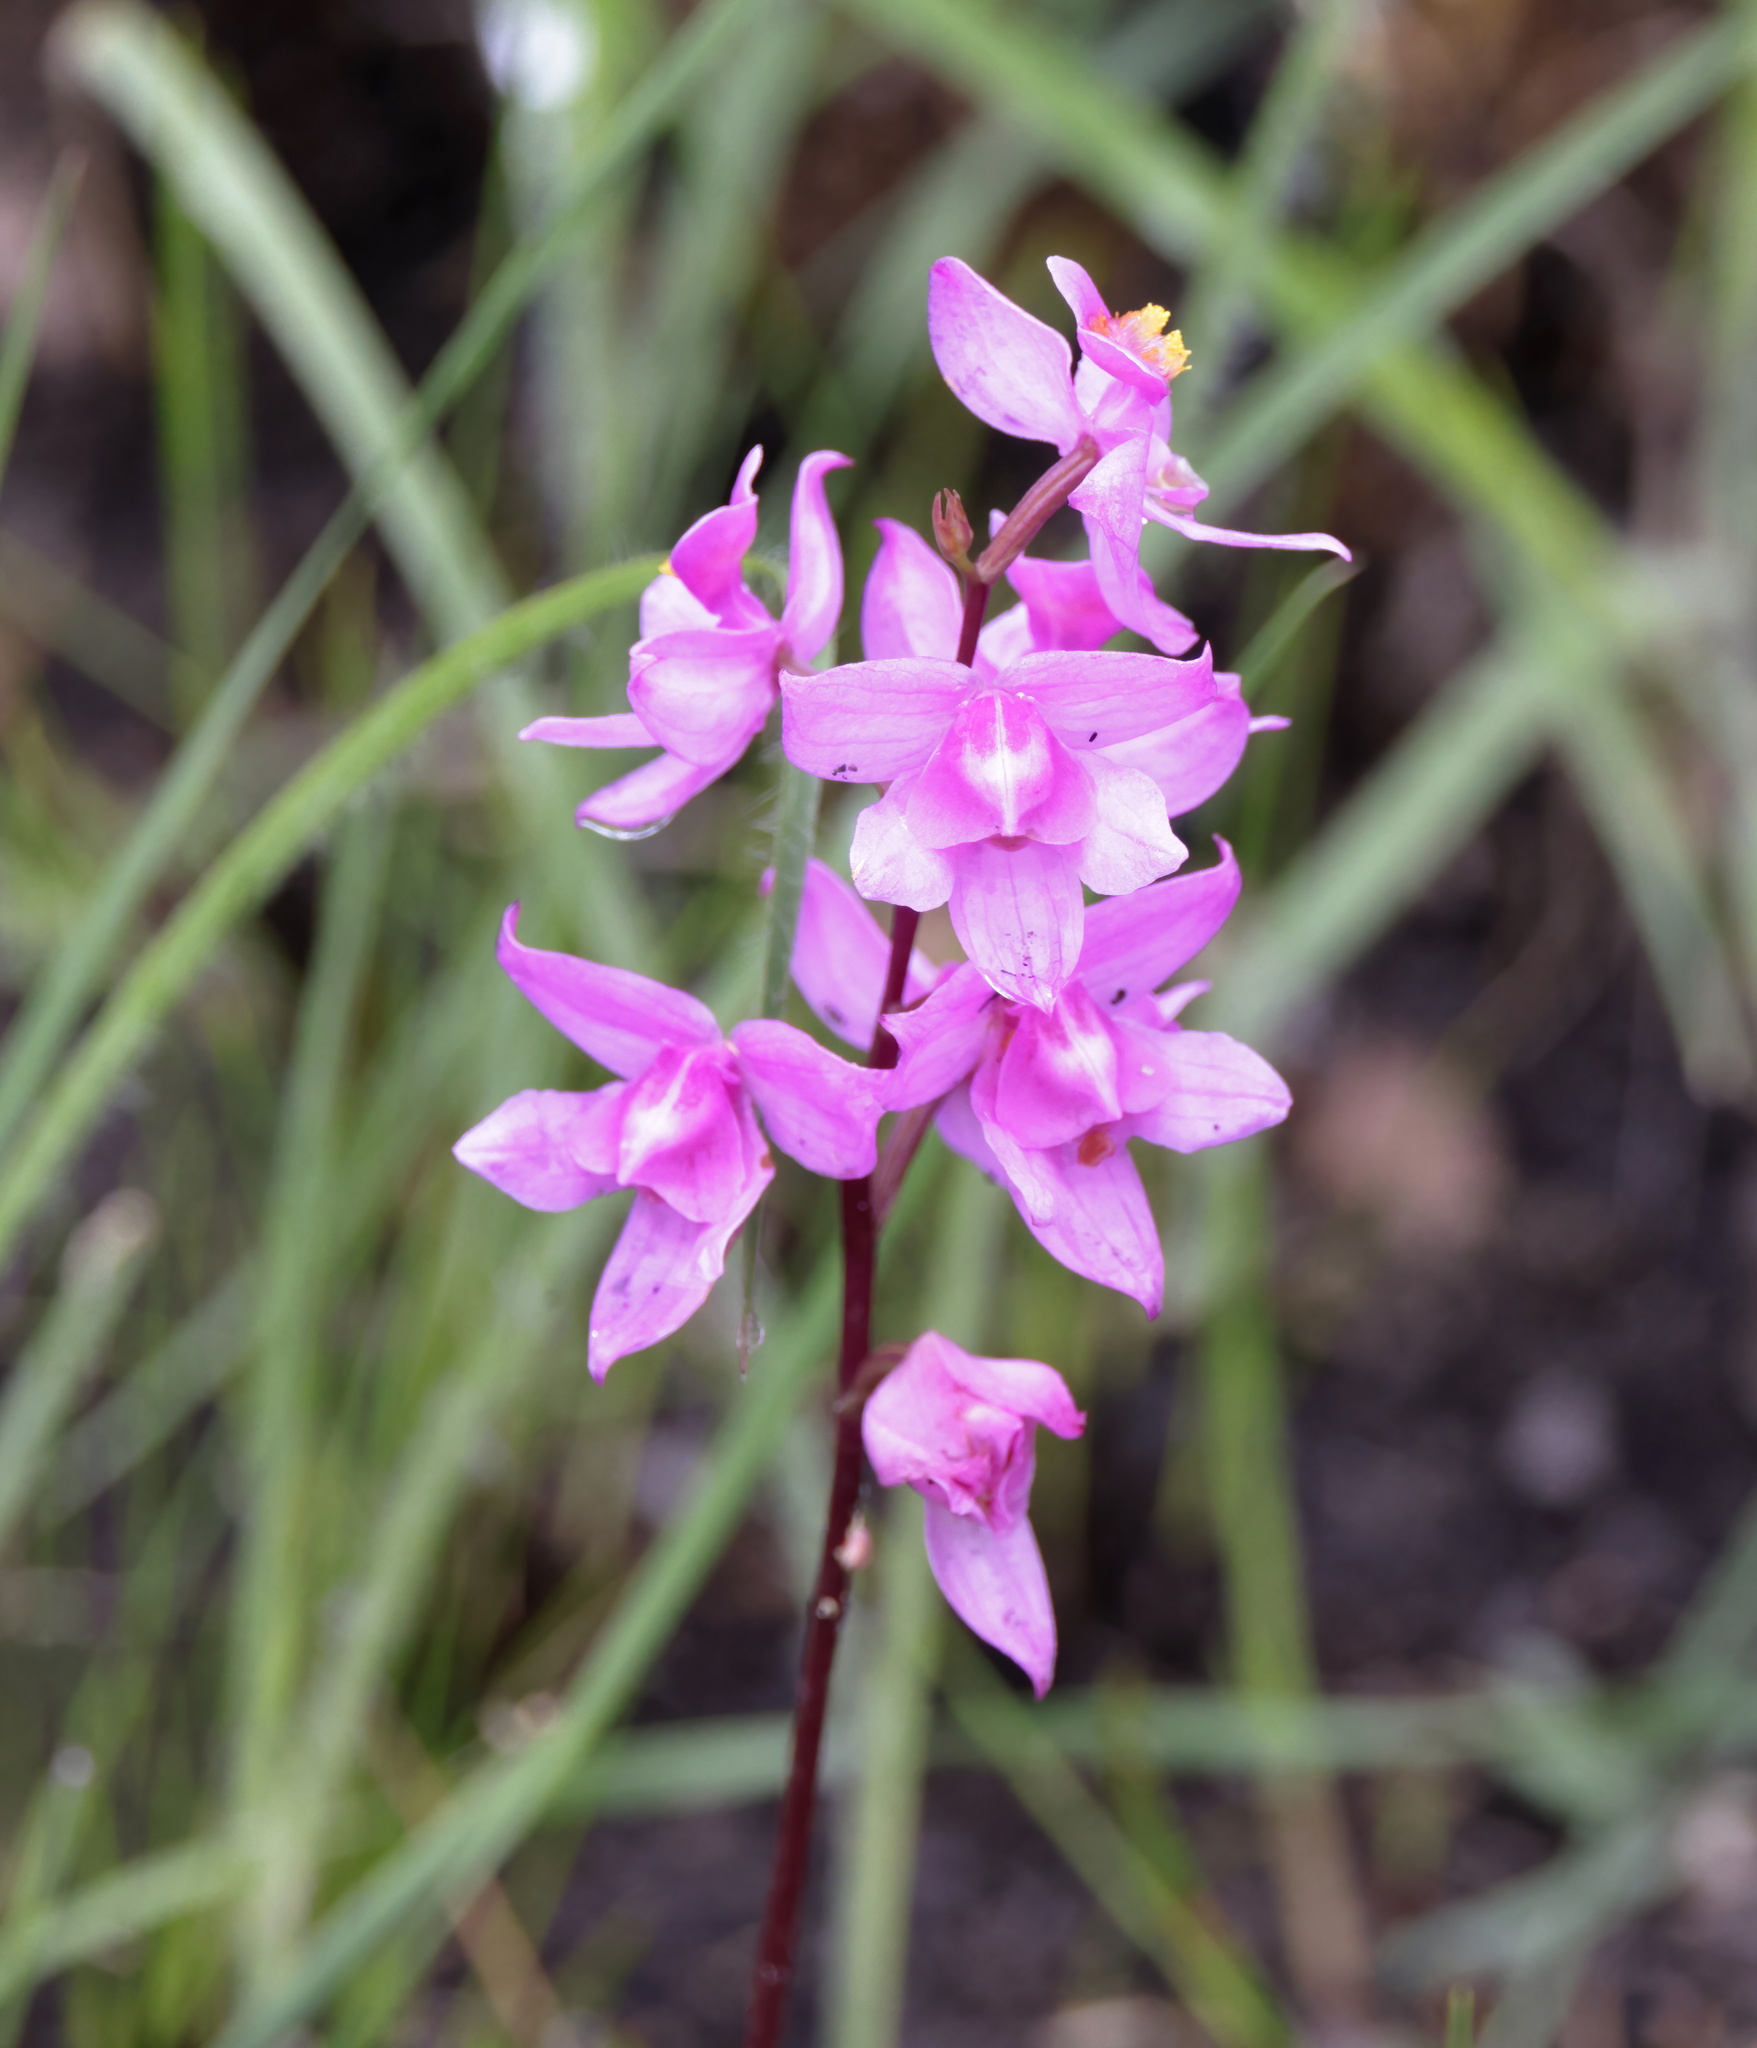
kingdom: Plantae
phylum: Tracheophyta
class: Liliopsida
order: Asparagales
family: Orchidaceae
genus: Calopogon
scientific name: Calopogon multiflorus
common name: Many-flowered grass-pink orchid
